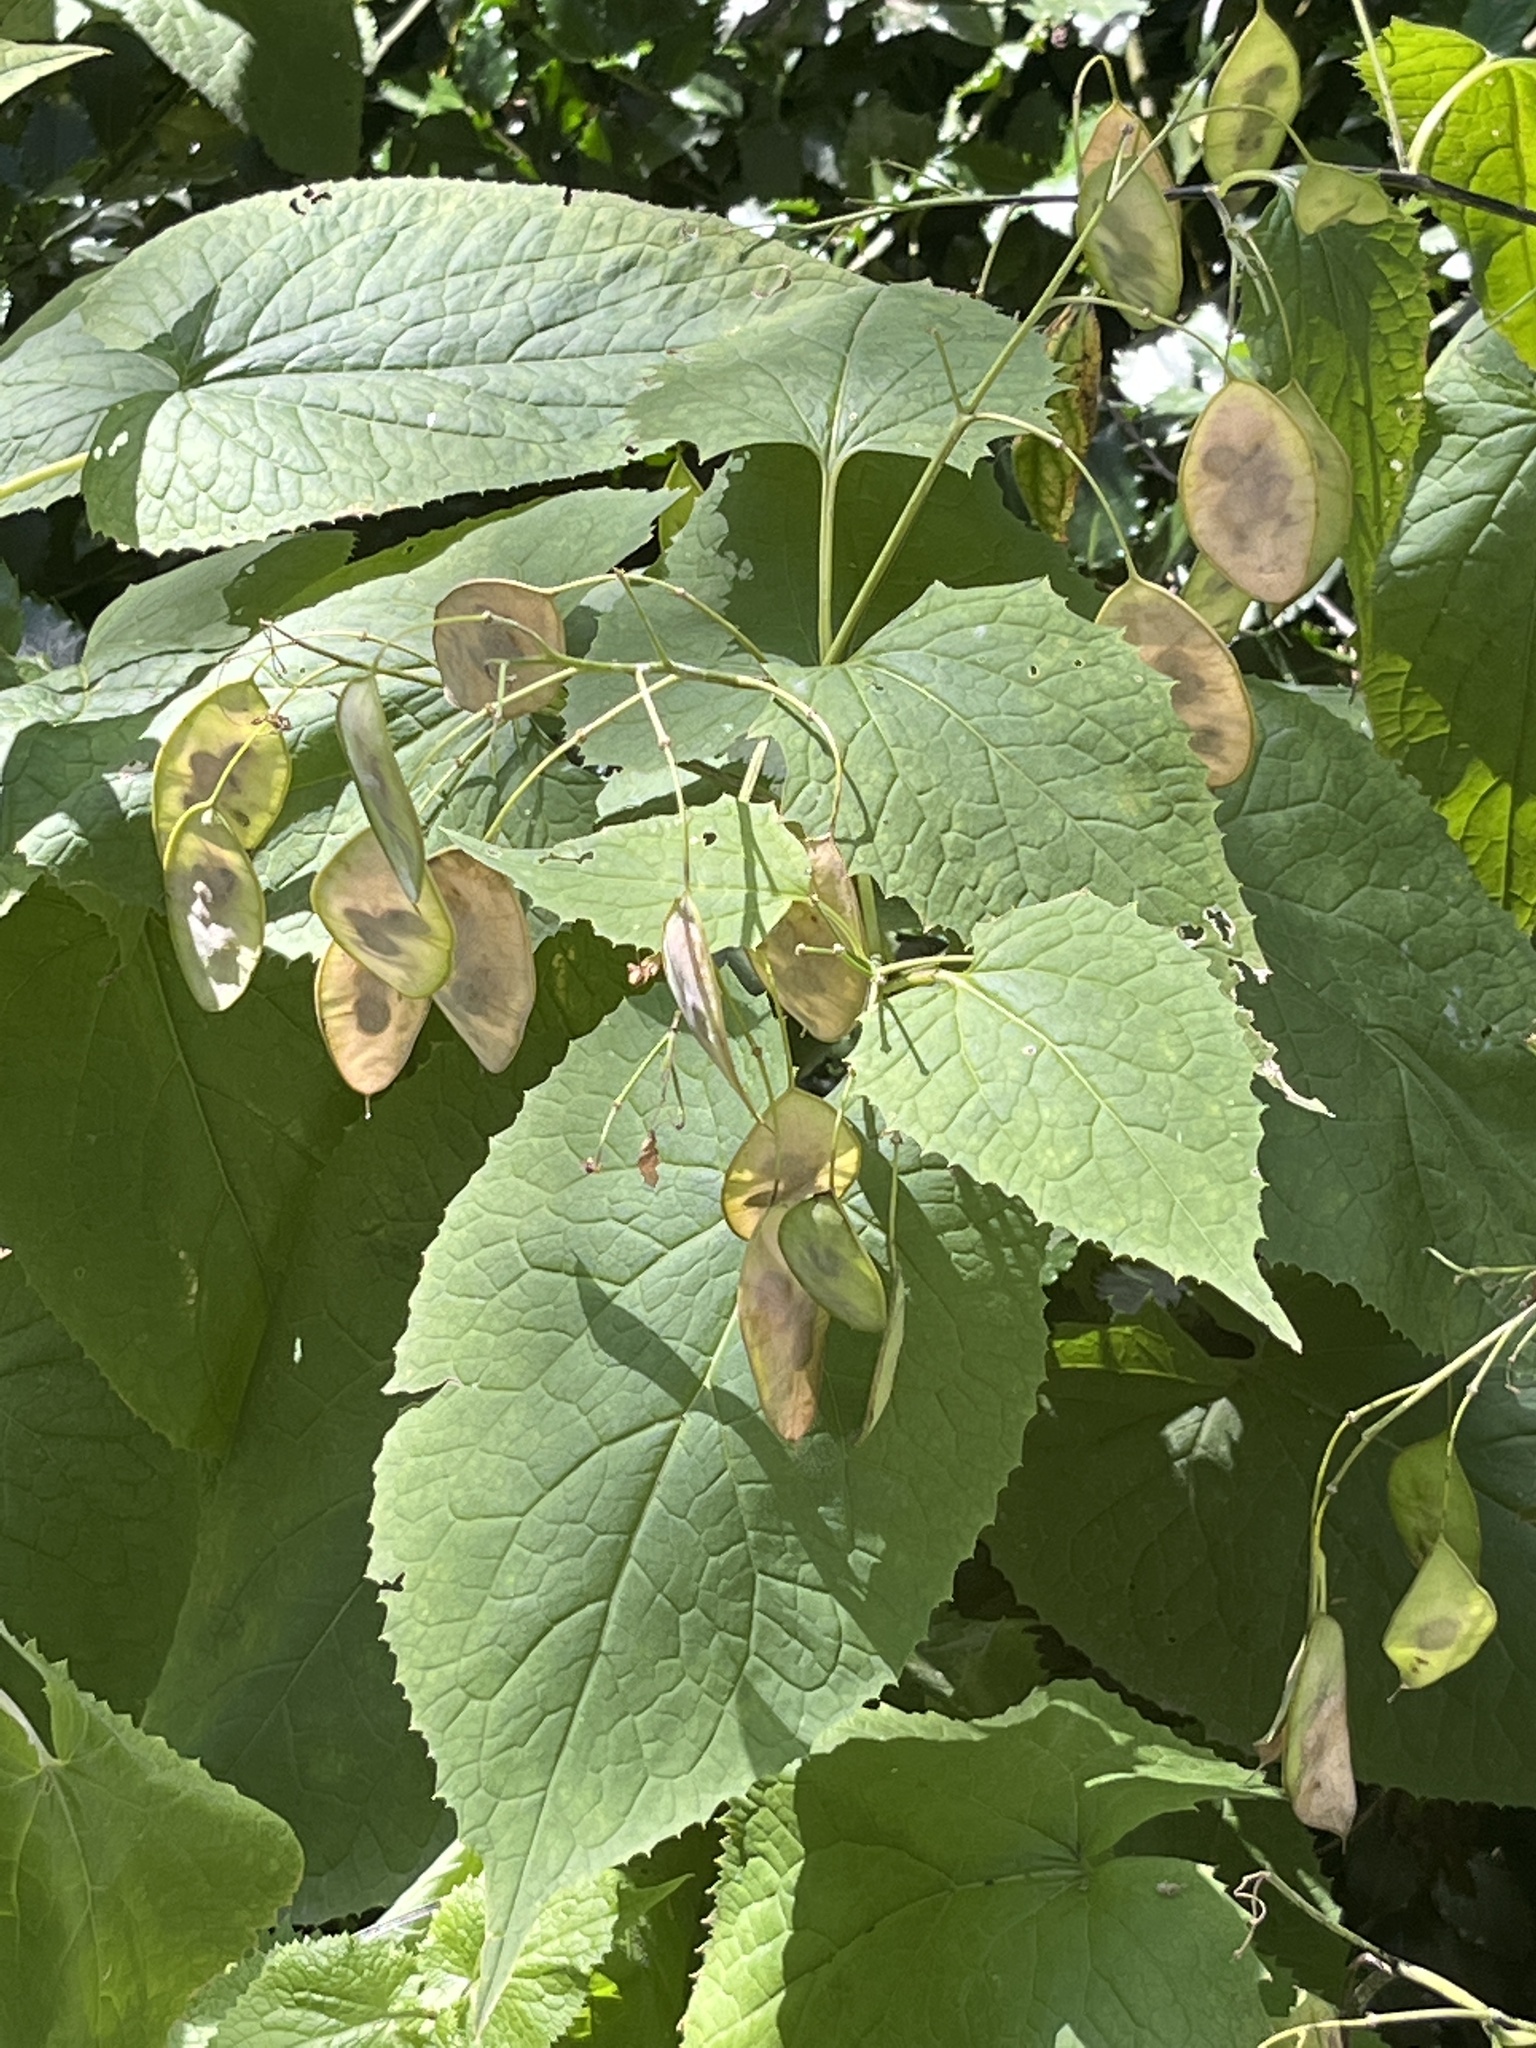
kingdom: Plantae
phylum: Tracheophyta
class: Magnoliopsida
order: Brassicales
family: Brassicaceae
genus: Lunaria
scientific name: Lunaria rediviva
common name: Perennial honesty
